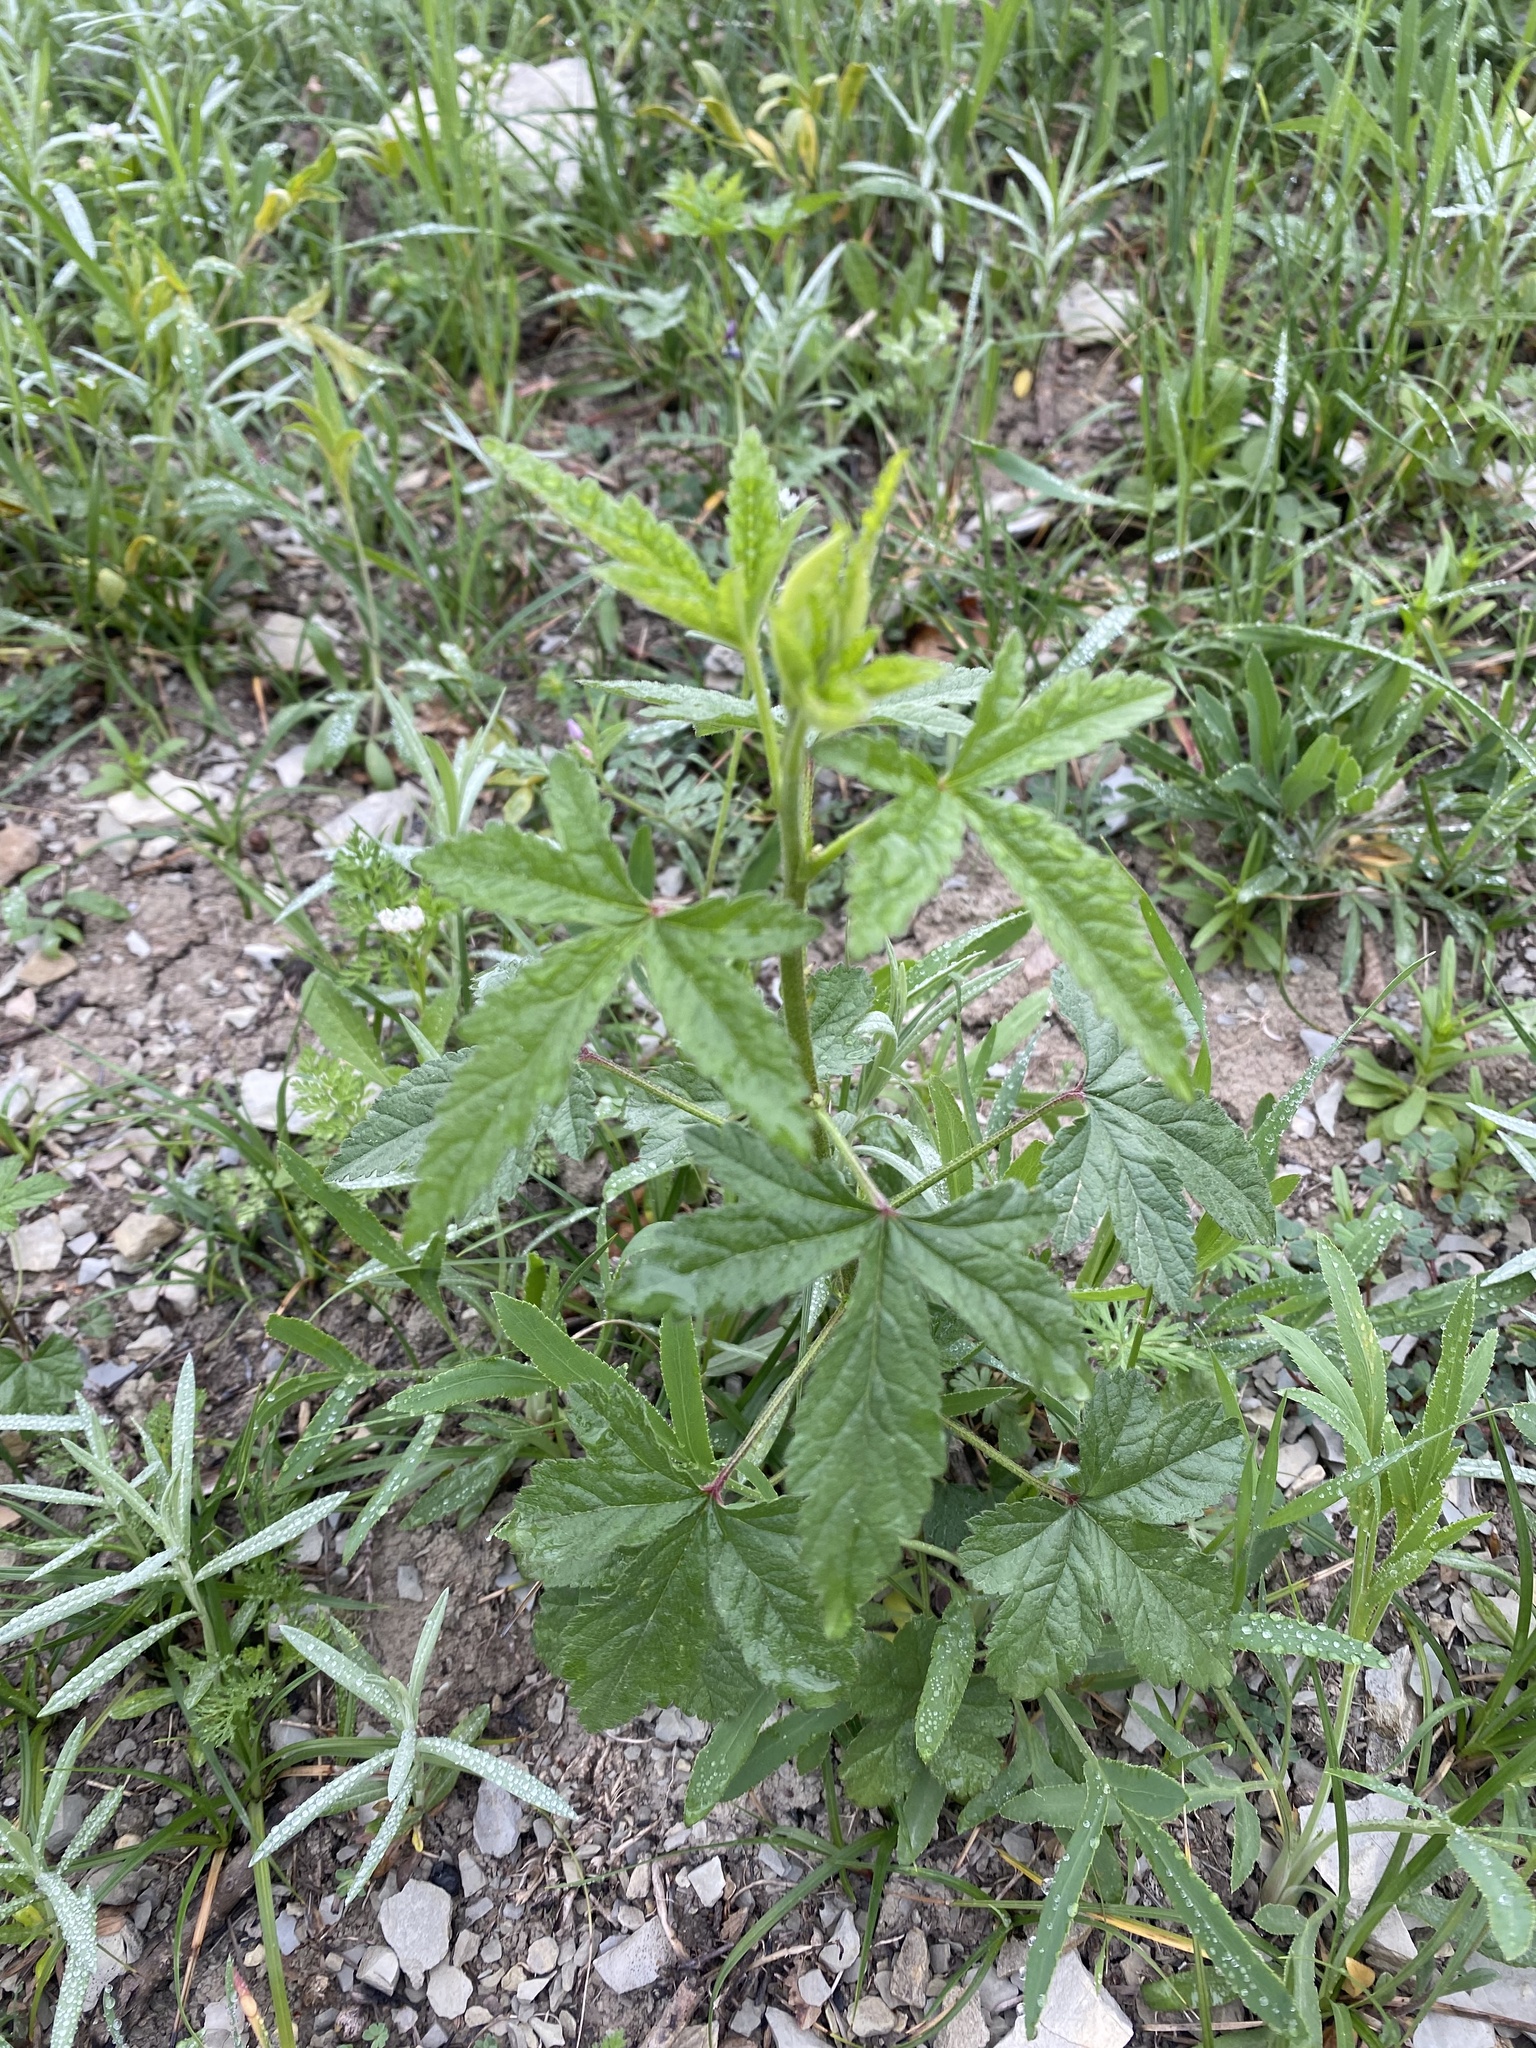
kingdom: Plantae
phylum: Tracheophyta
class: Magnoliopsida
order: Malvales
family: Malvaceae
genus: Althaea
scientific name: Althaea cannabina
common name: Palm-leaf marshmallow
